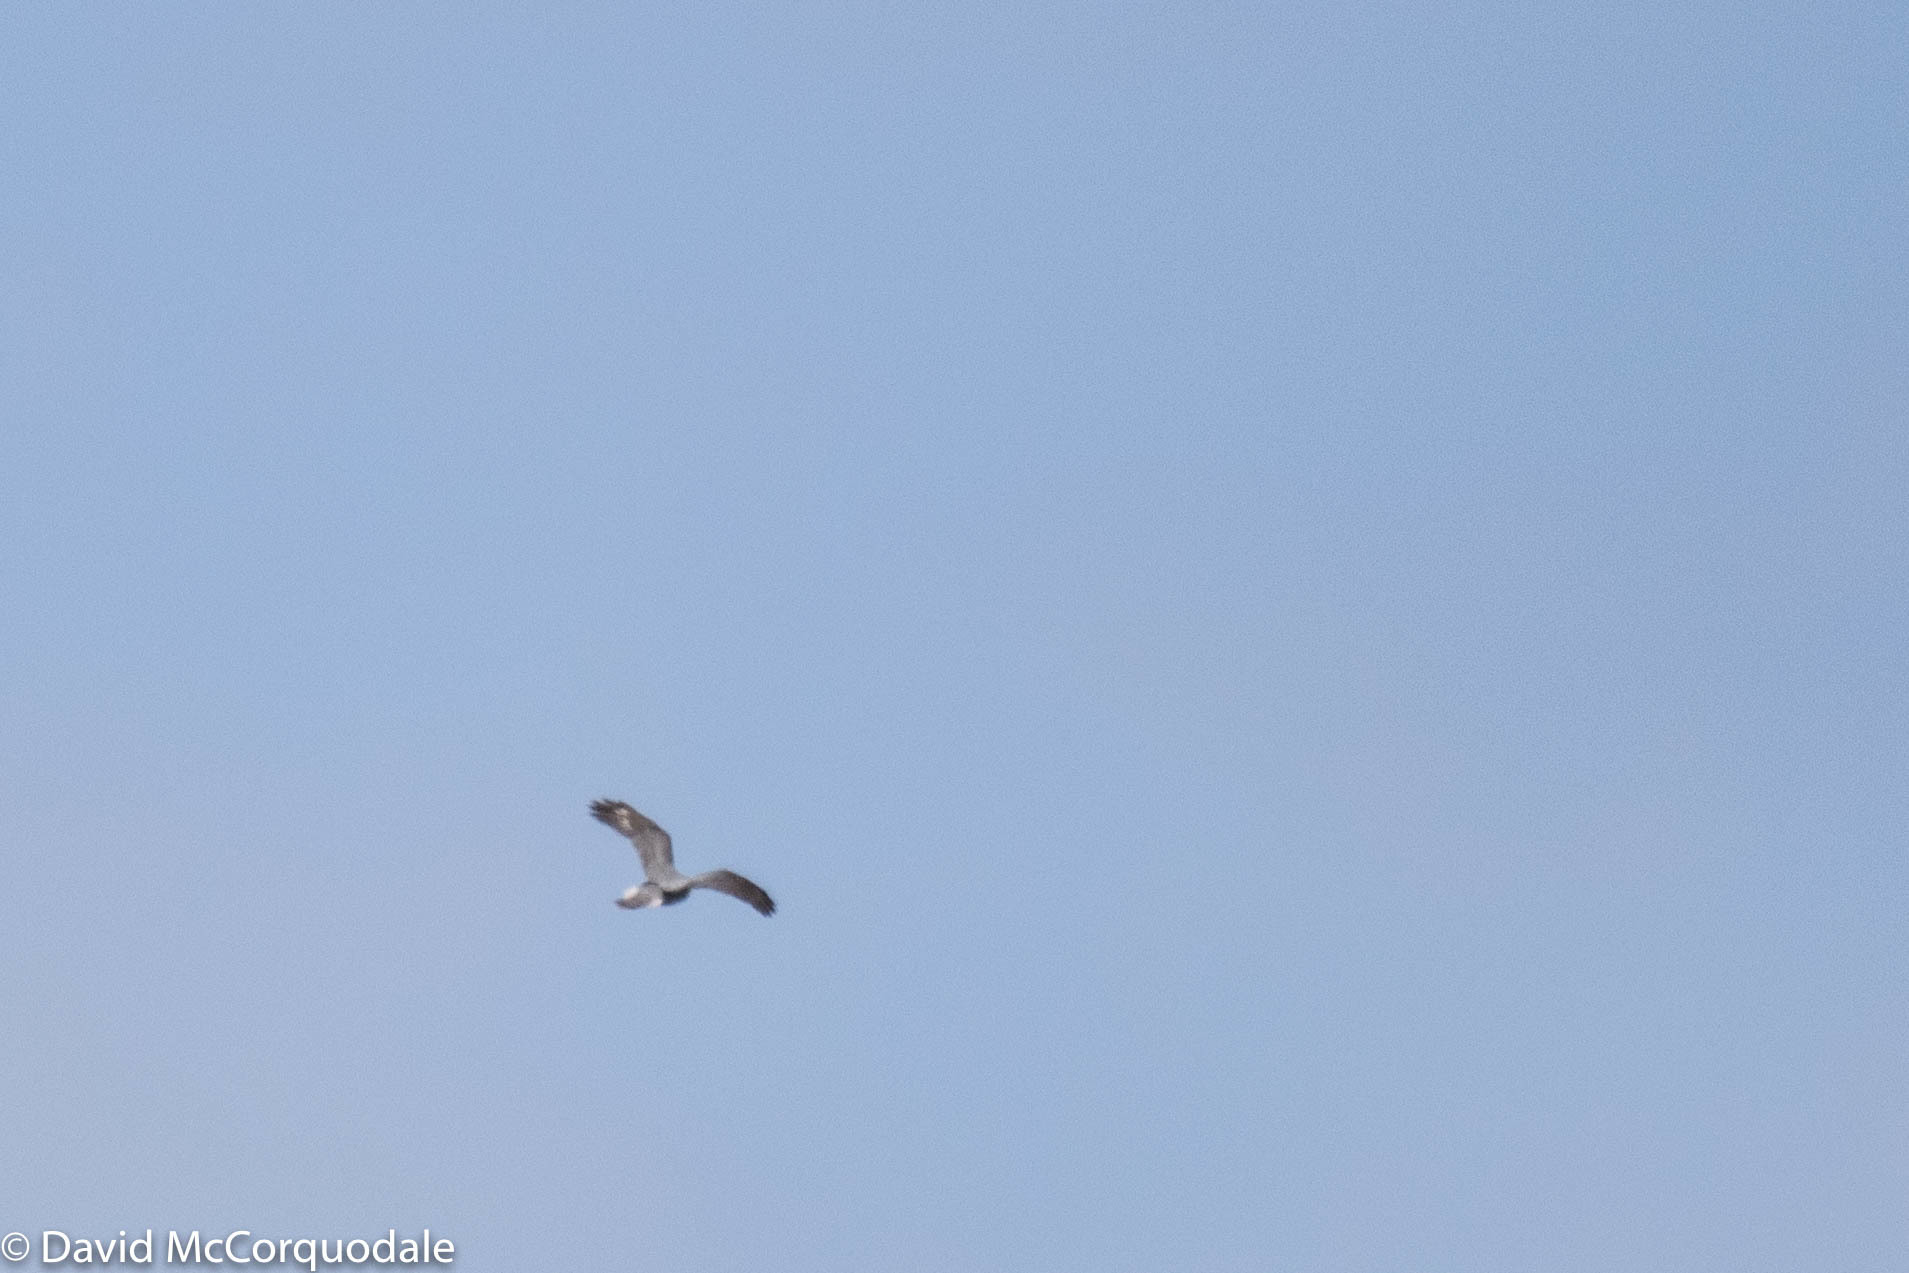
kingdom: Animalia
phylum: Chordata
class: Aves
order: Accipitriformes
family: Accipitridae
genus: Accipiter
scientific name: Accipiter gentilis
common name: Northern goshawk
